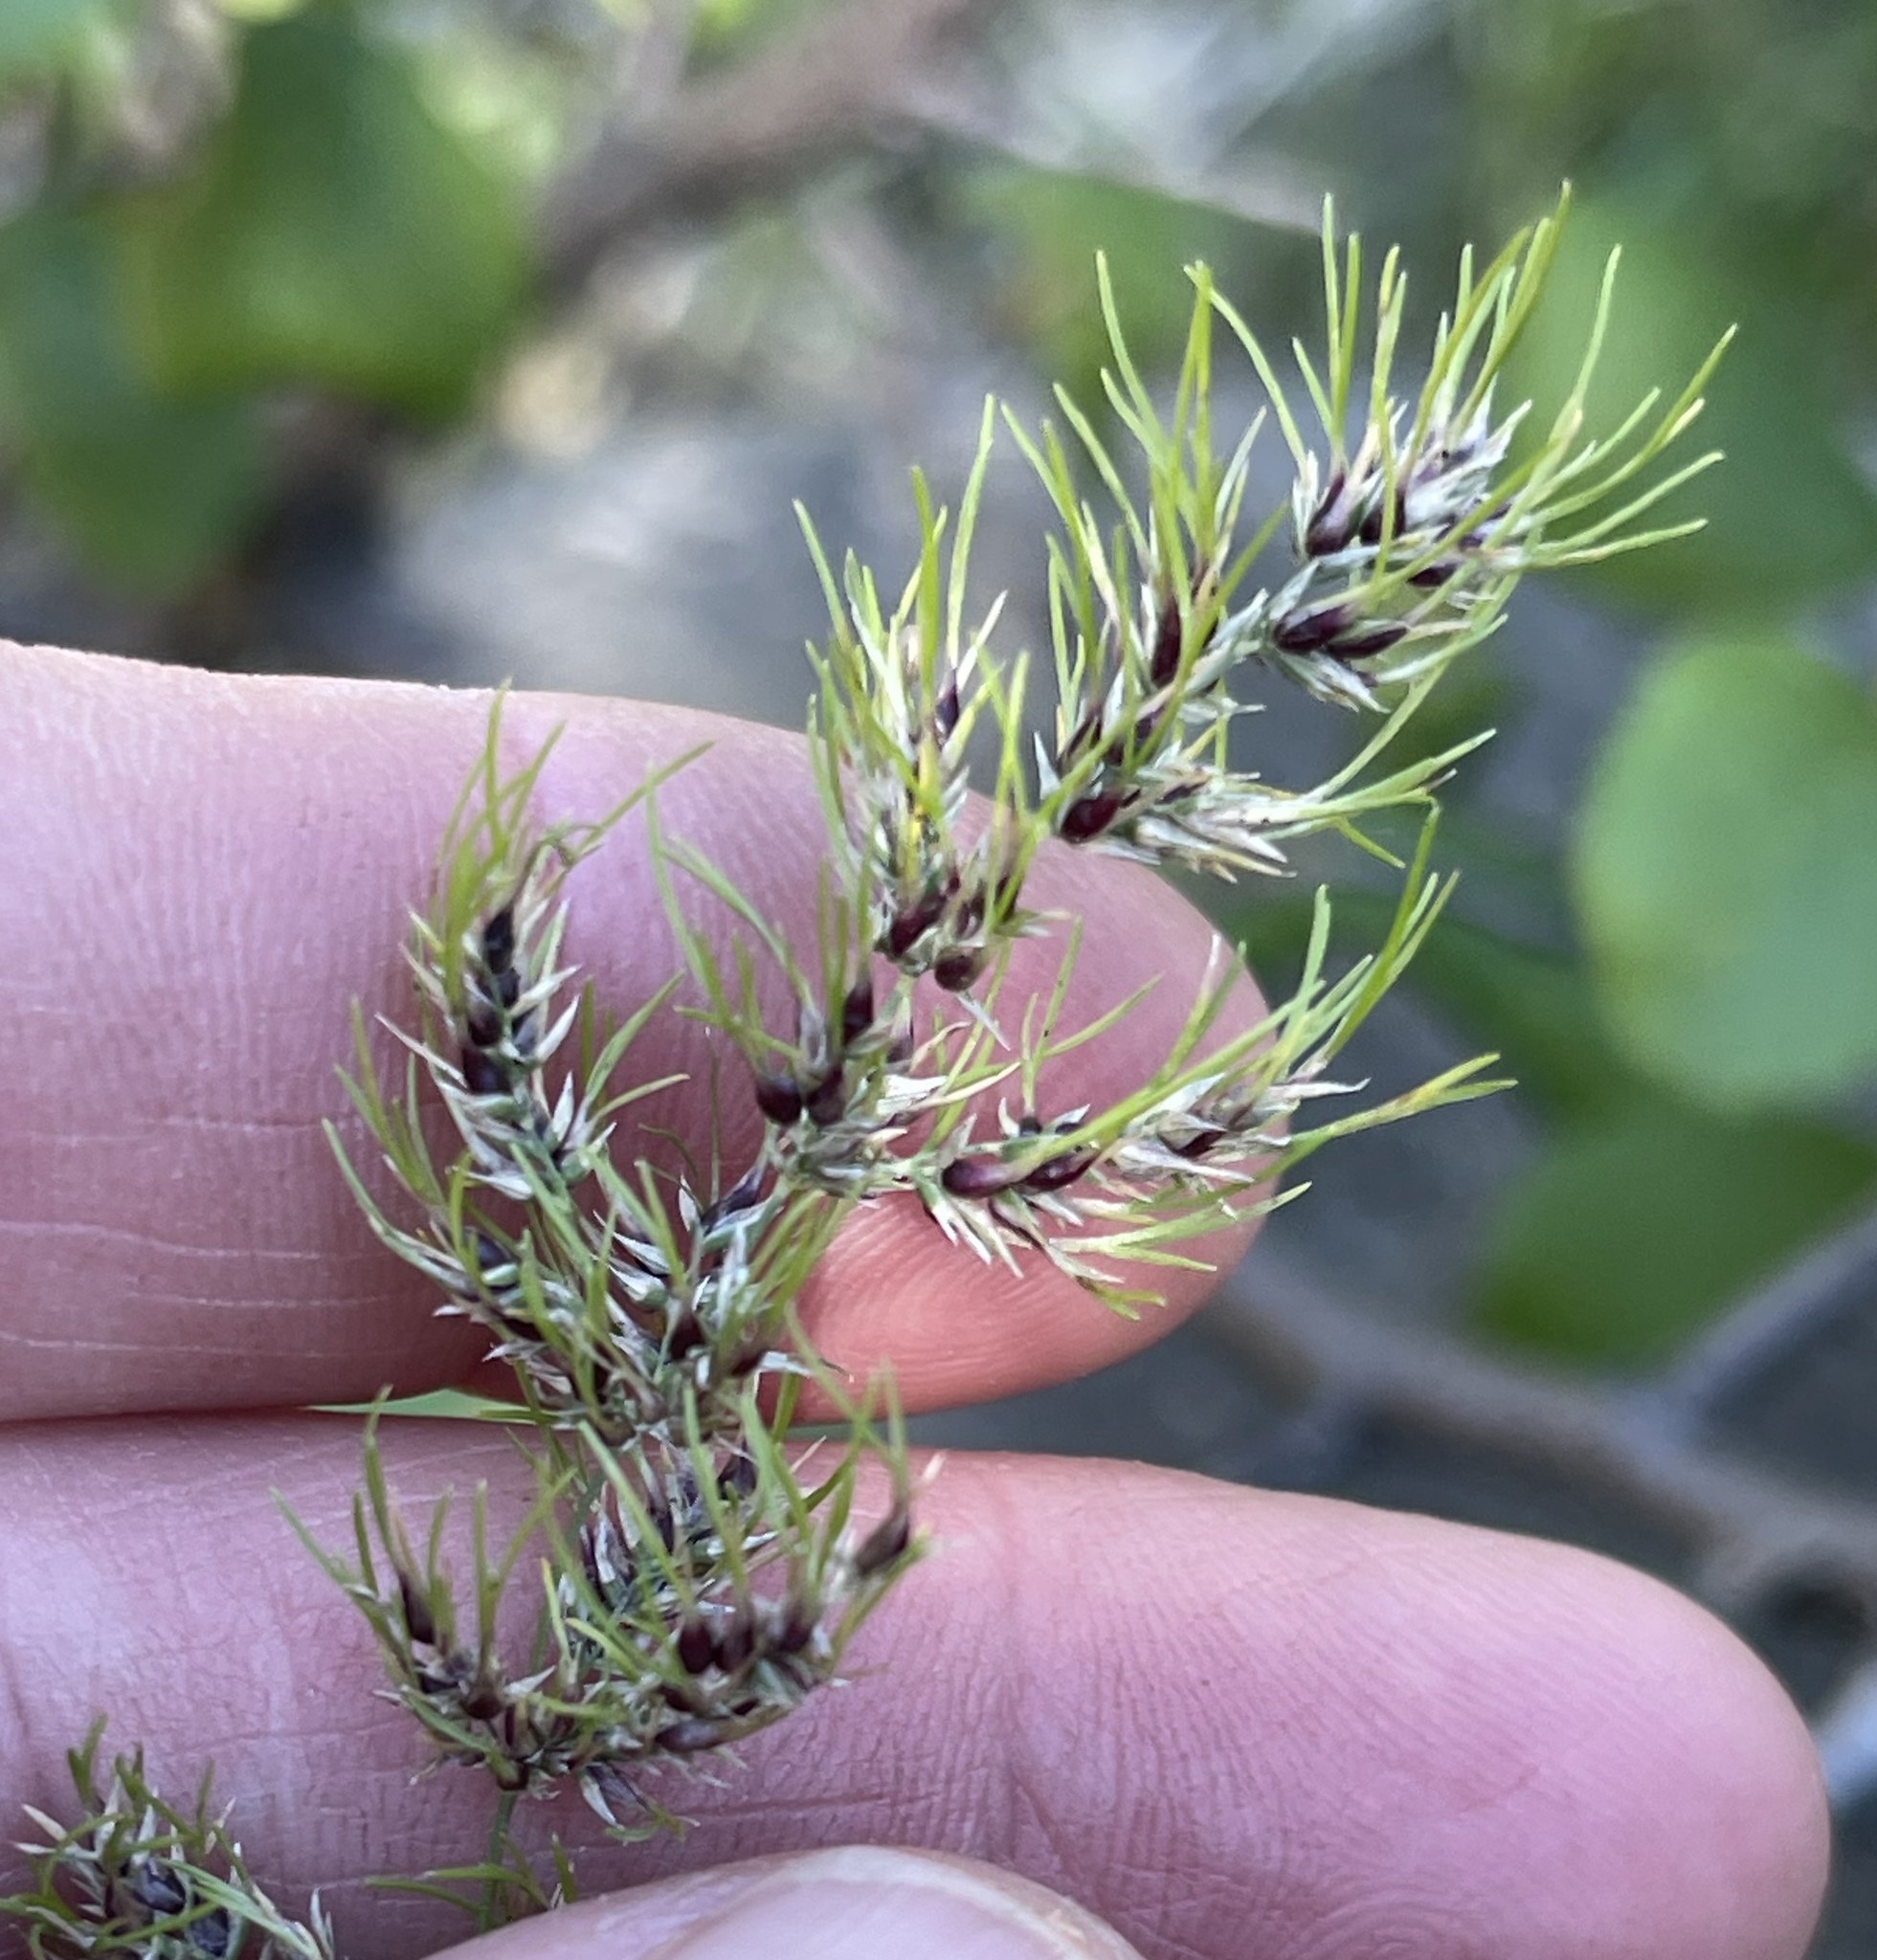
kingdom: Plantae
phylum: Tracheophyta
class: Liliopsida
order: Poales
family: Poaceae
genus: Poa
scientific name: Poa bulbosa
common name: Bulbous bluegrass
